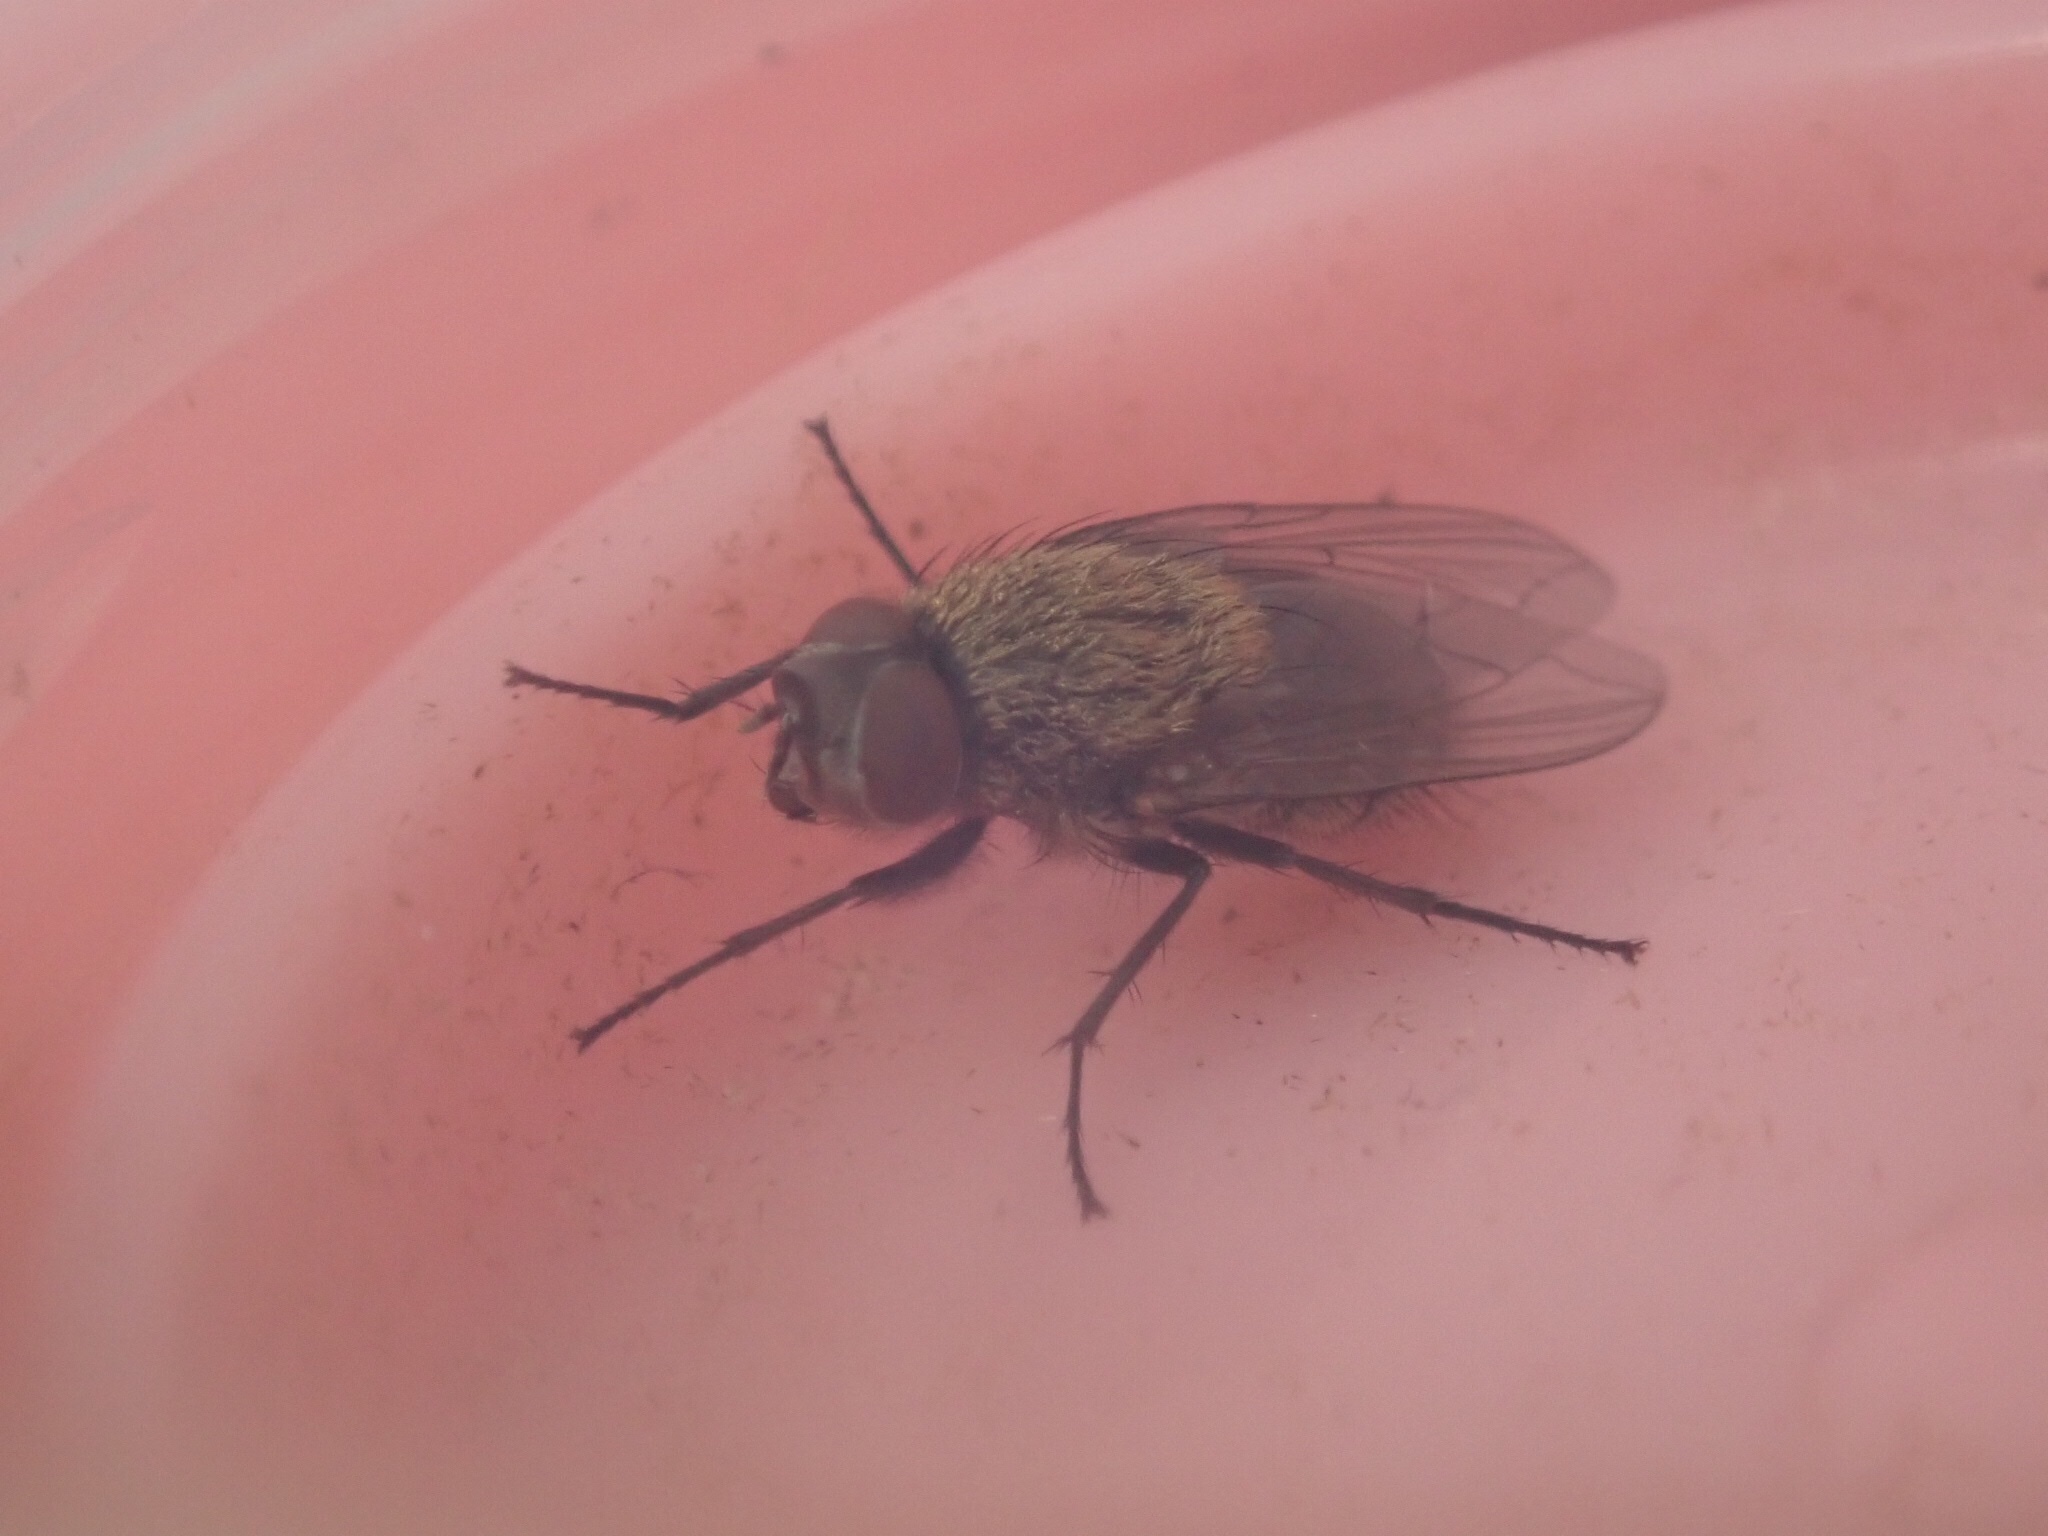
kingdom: Animalia
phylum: Arthropoda
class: Insecta
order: Diptera
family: Polleniidae
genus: Pollenia
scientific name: Pollenia pediculata
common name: Tufted clusterfly
